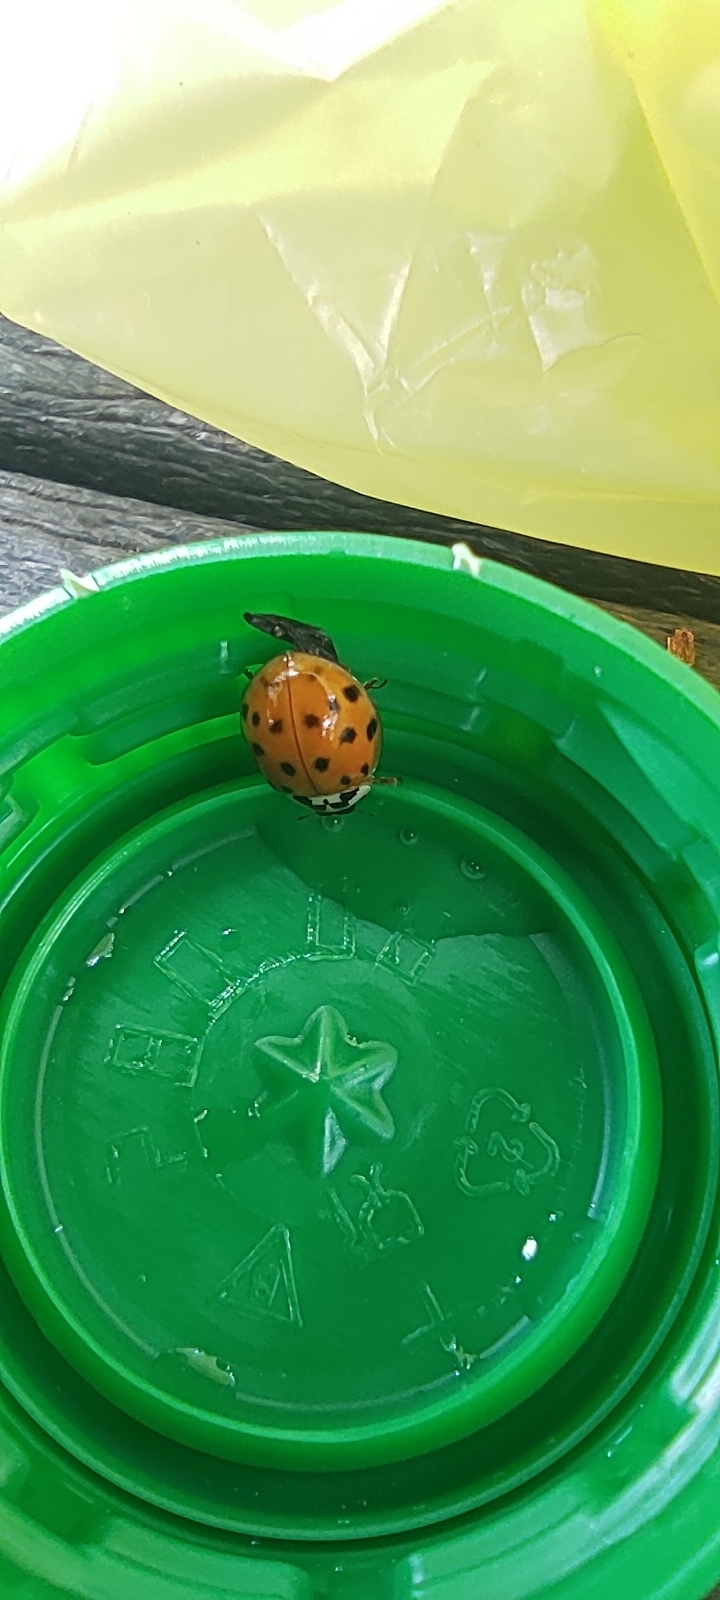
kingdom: Animalia
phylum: Arthropoda
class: Insecta
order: Coleoptera
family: Coccinellidae
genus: Harmonia
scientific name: Harmonia axyridis
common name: Harlequin ladybird
